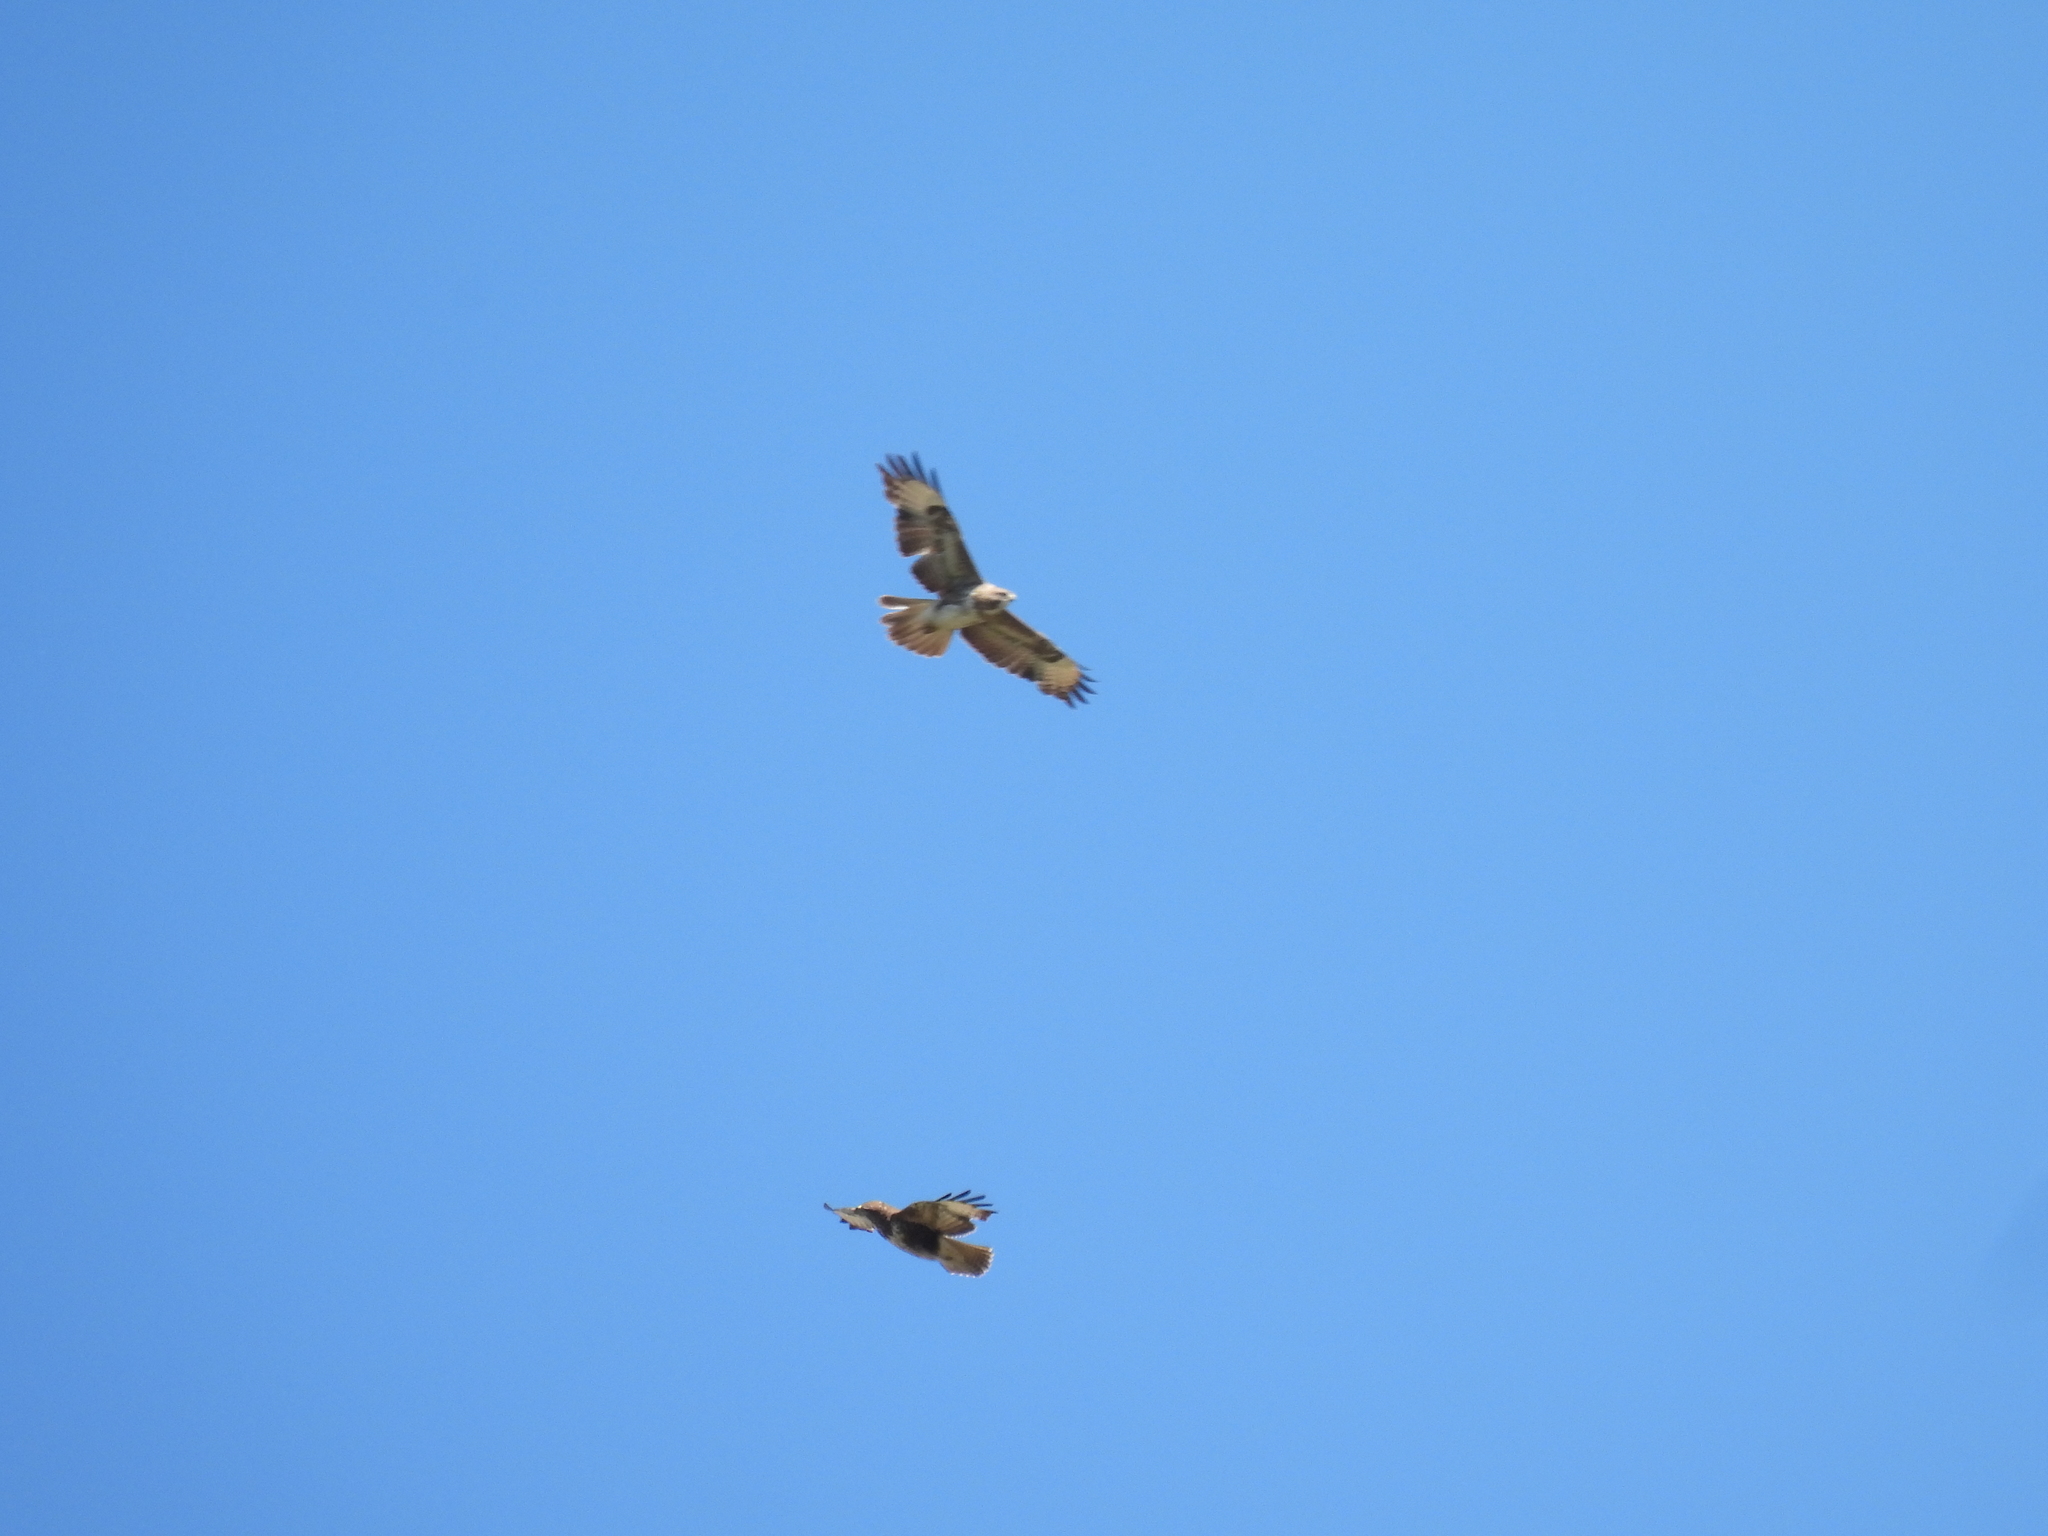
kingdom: Animalia
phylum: Chordata
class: Aves
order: Accipitriformes
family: Accipitridae
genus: Buteo
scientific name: Buteo buteo
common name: Common buzzard
